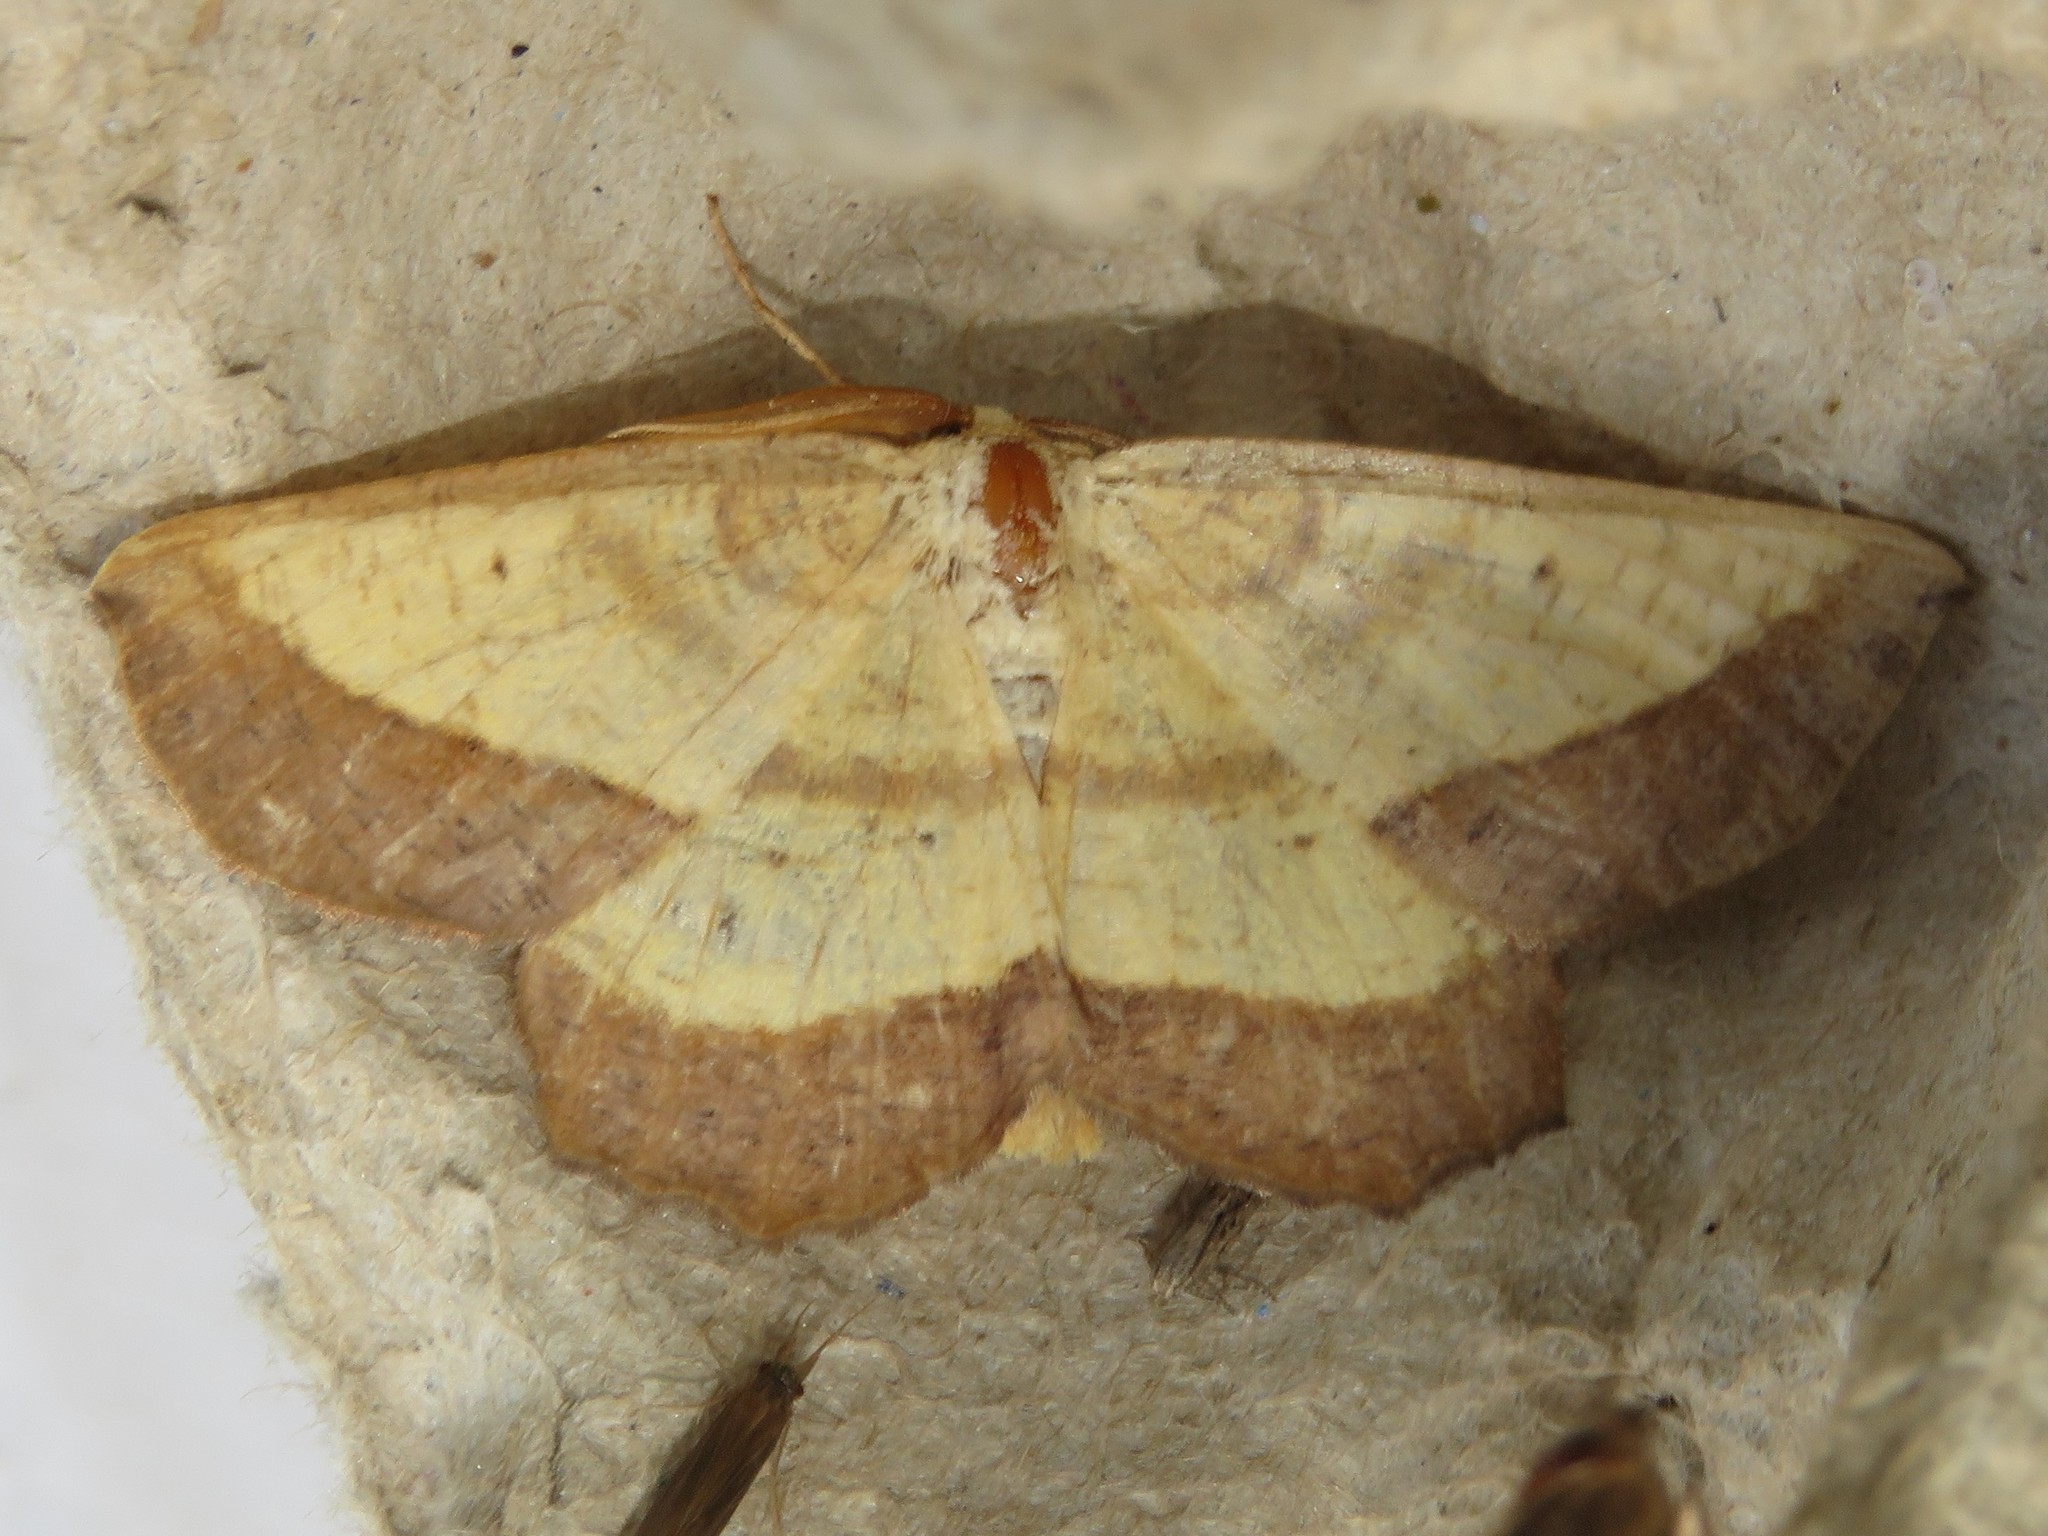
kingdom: Animalia
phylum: Arthropoda
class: Insecta
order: Lepidoptera
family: Geometridae
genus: Euchlaena
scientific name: Euchlaena serrata
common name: Saw wing
